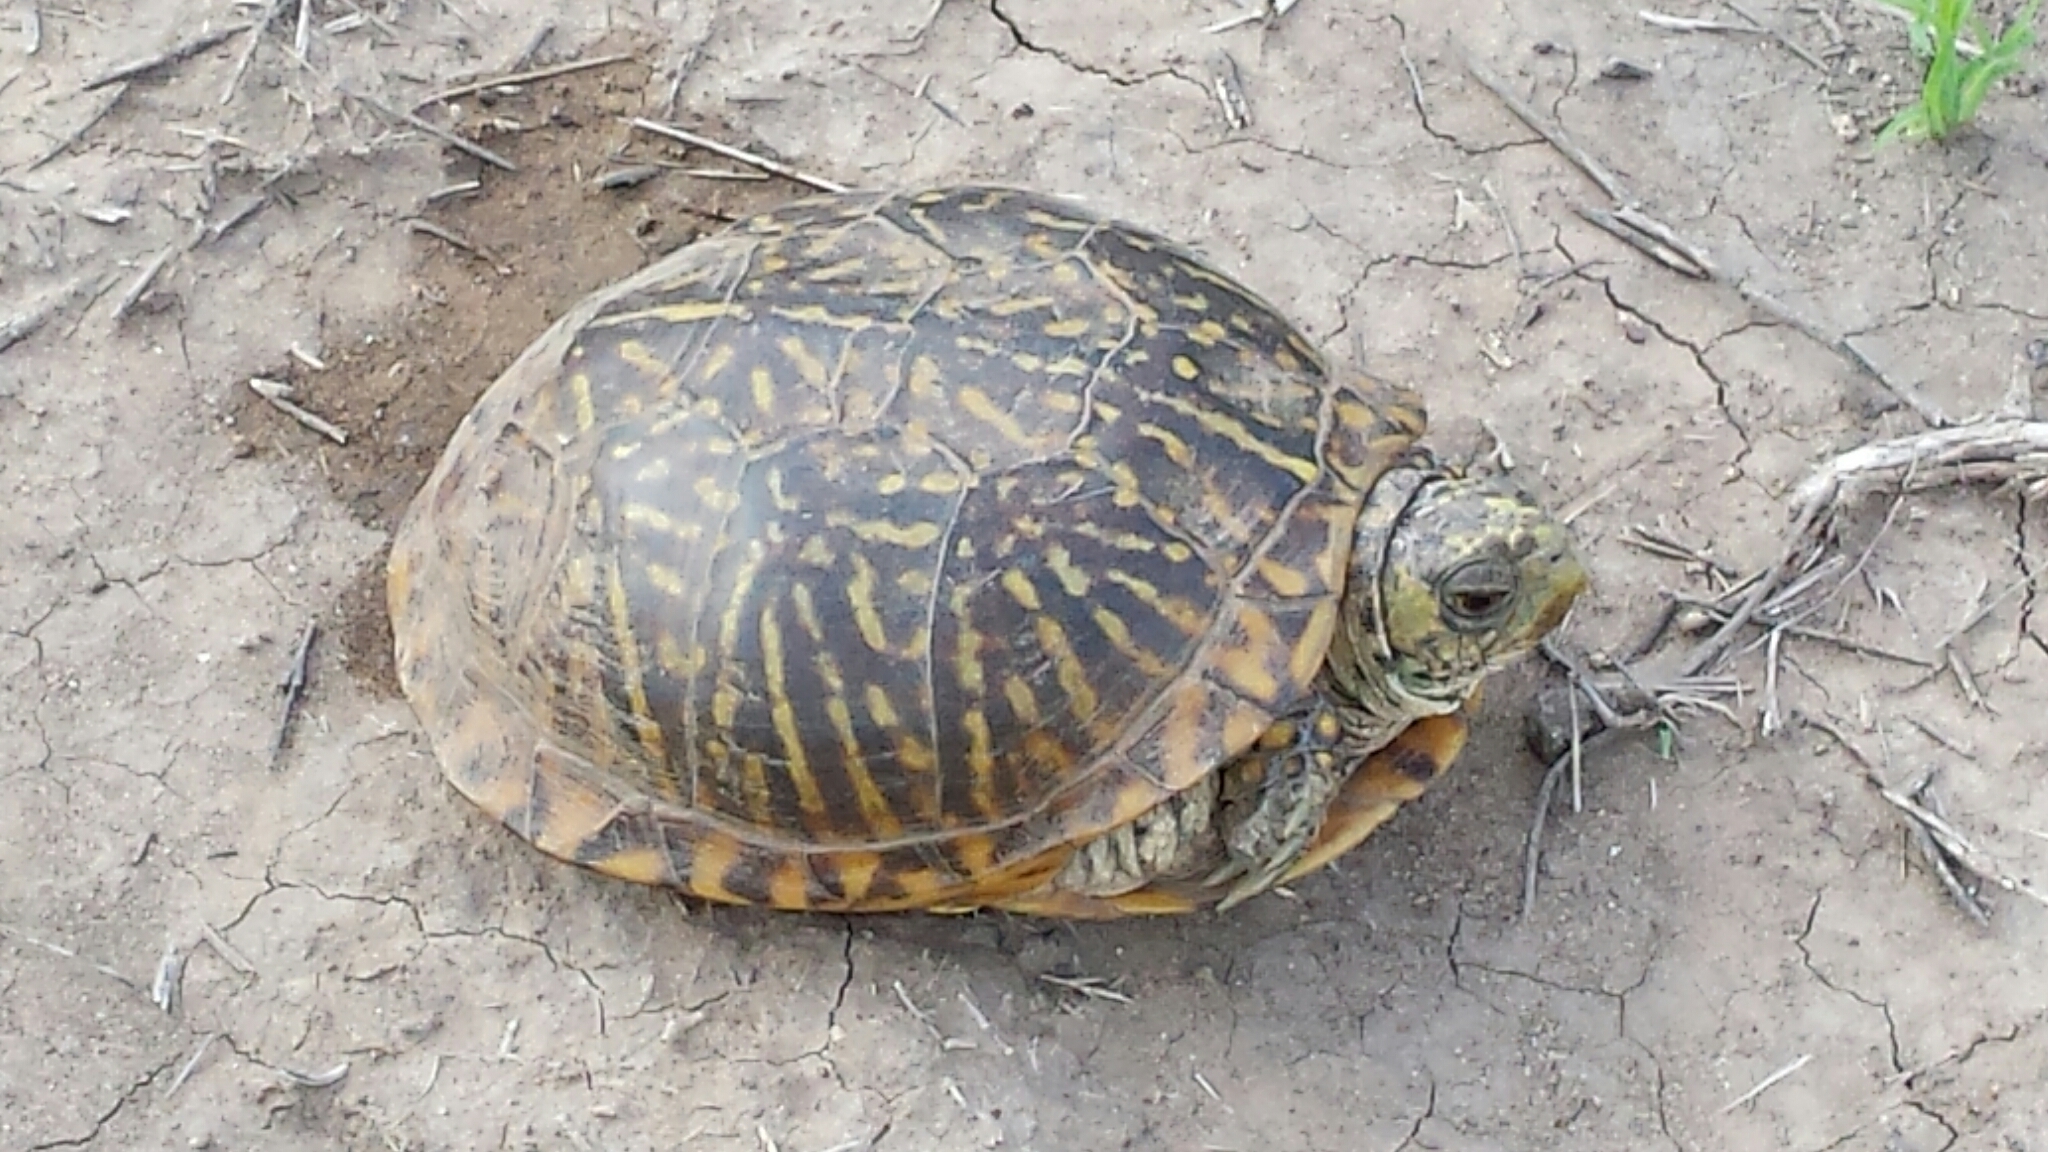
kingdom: Animalia
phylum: Chordata
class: Testudines
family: Emydidae
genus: Terrapene
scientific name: Terrapene ornata
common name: Western box turtle
